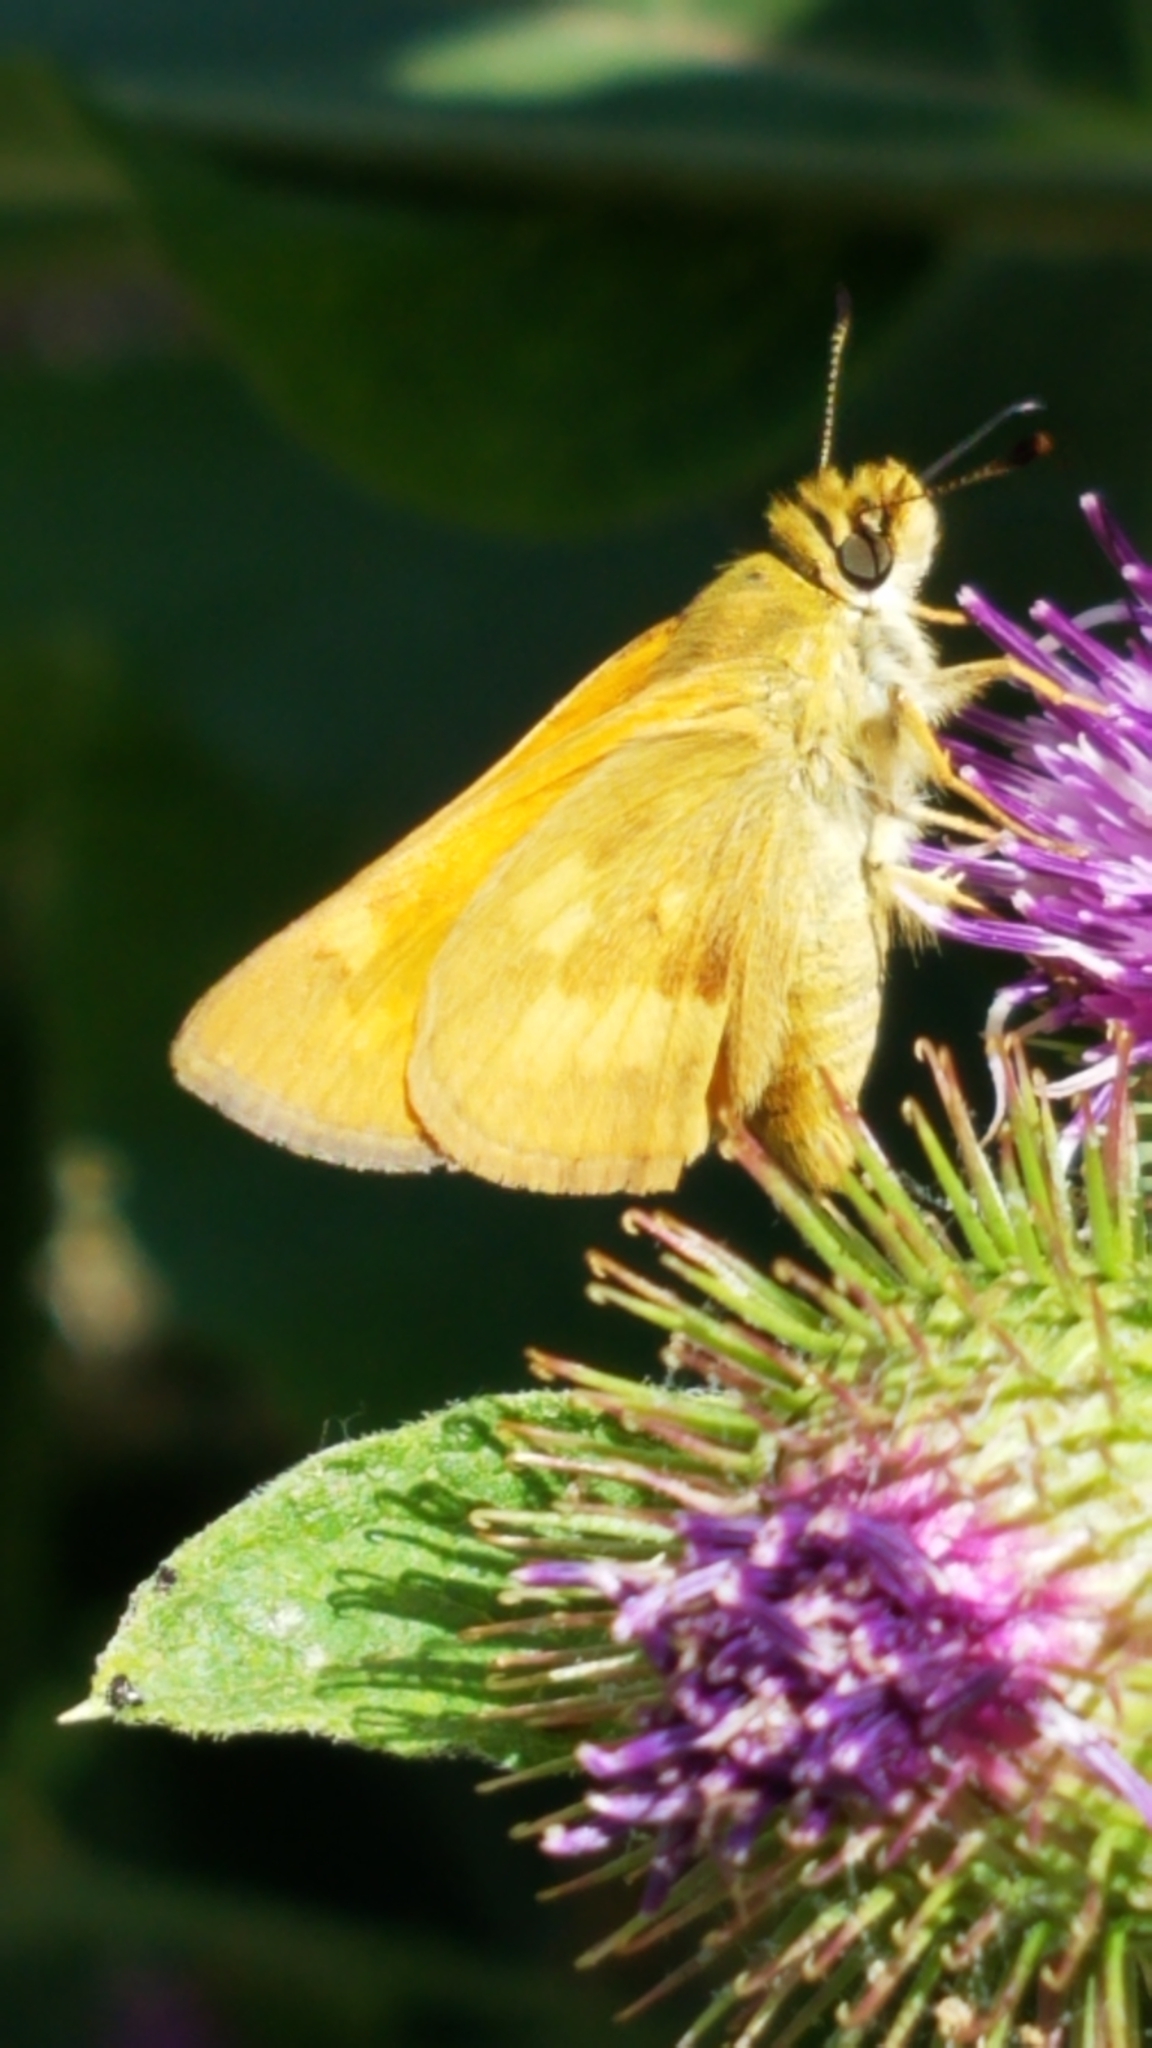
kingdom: Animalia
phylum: Arthropoda
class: Insecta
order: Lepidoptera
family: Hesperiidae
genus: Ochlodes
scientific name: Ochlodes sylvanoides
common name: Woodland skipper
